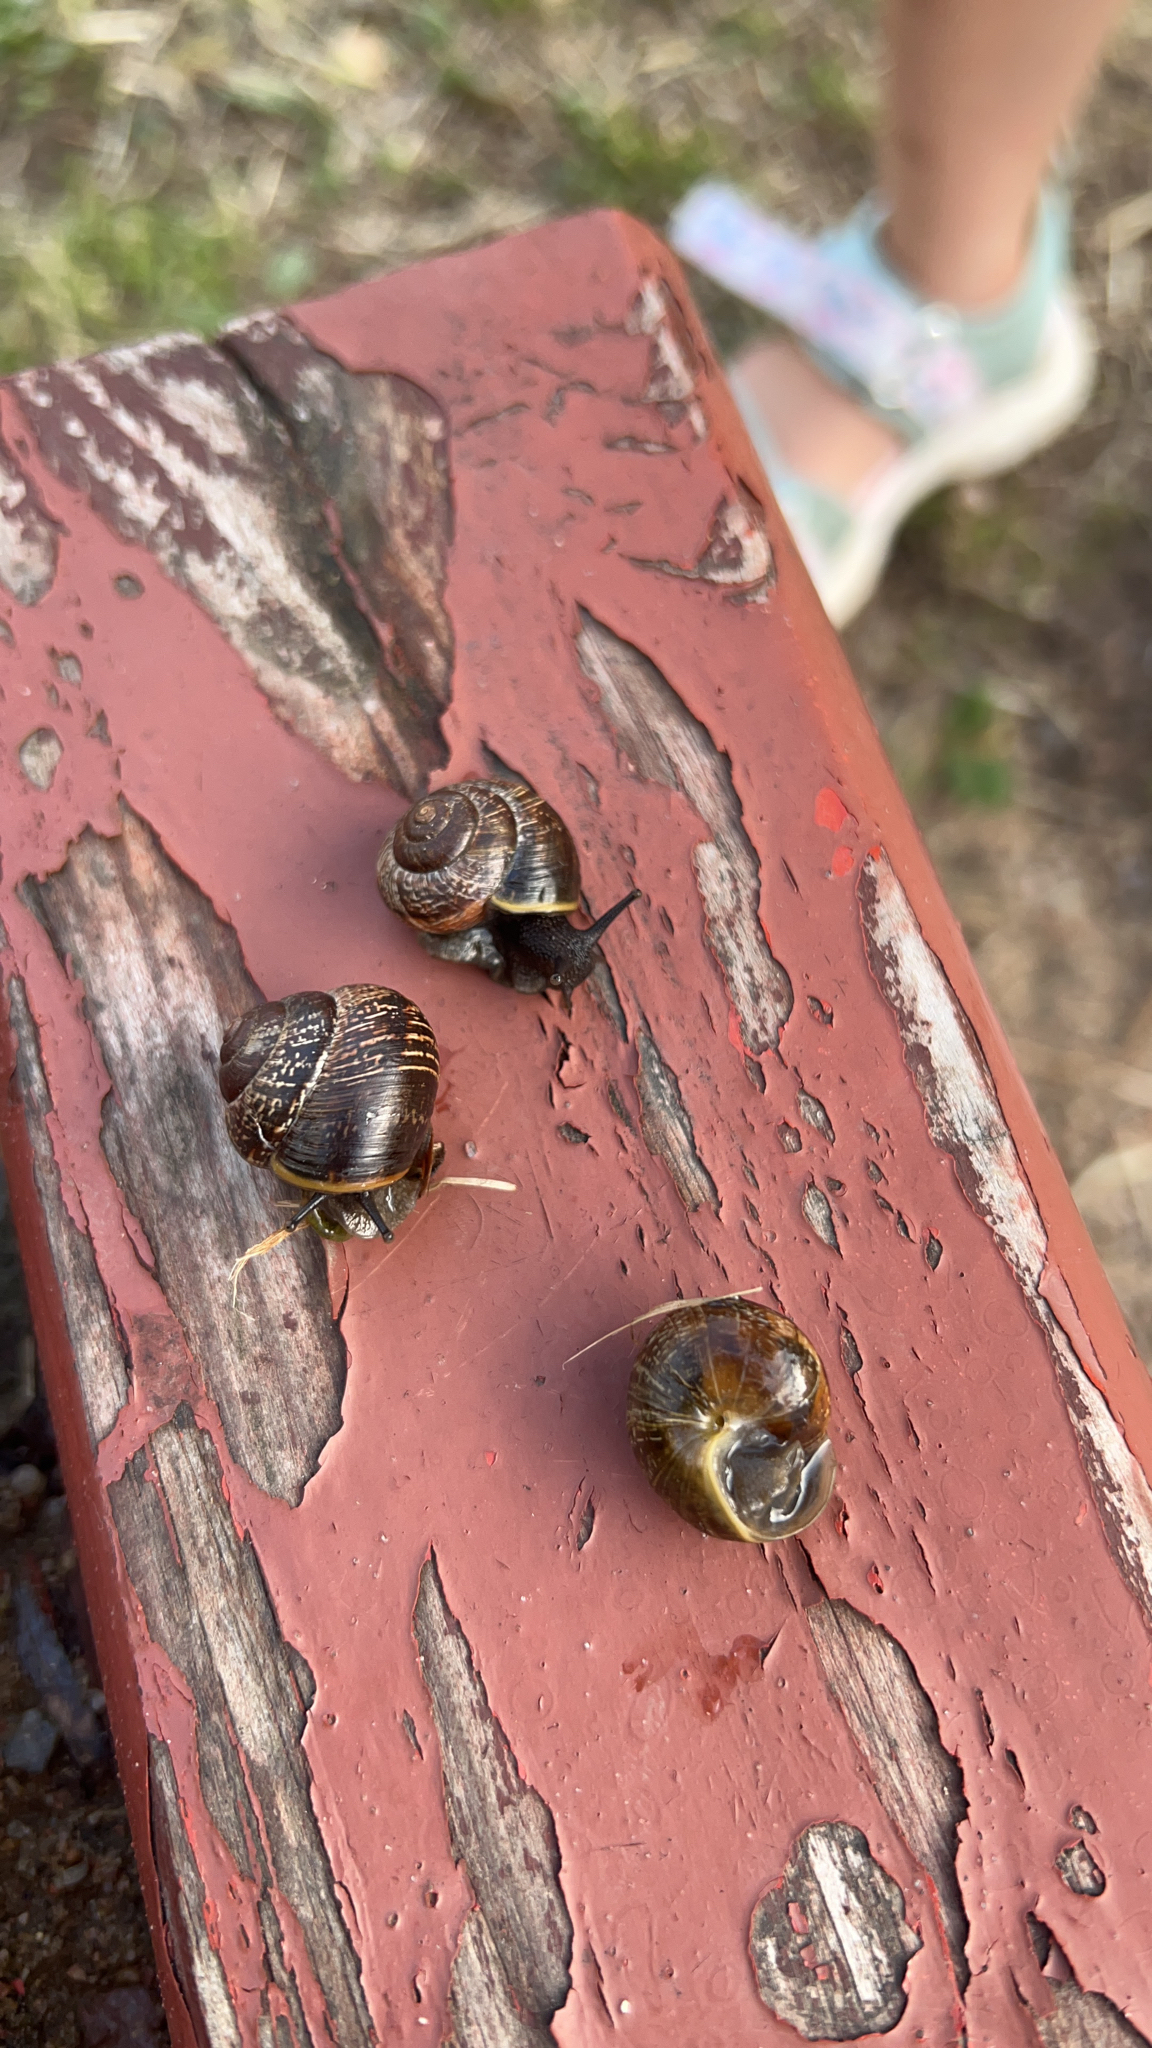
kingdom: Animalia
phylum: Mollusca
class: Gastropoda
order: Stylommatophora
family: Helicidae
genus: Arianta
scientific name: Arianta arbustorum
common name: Copse snail
